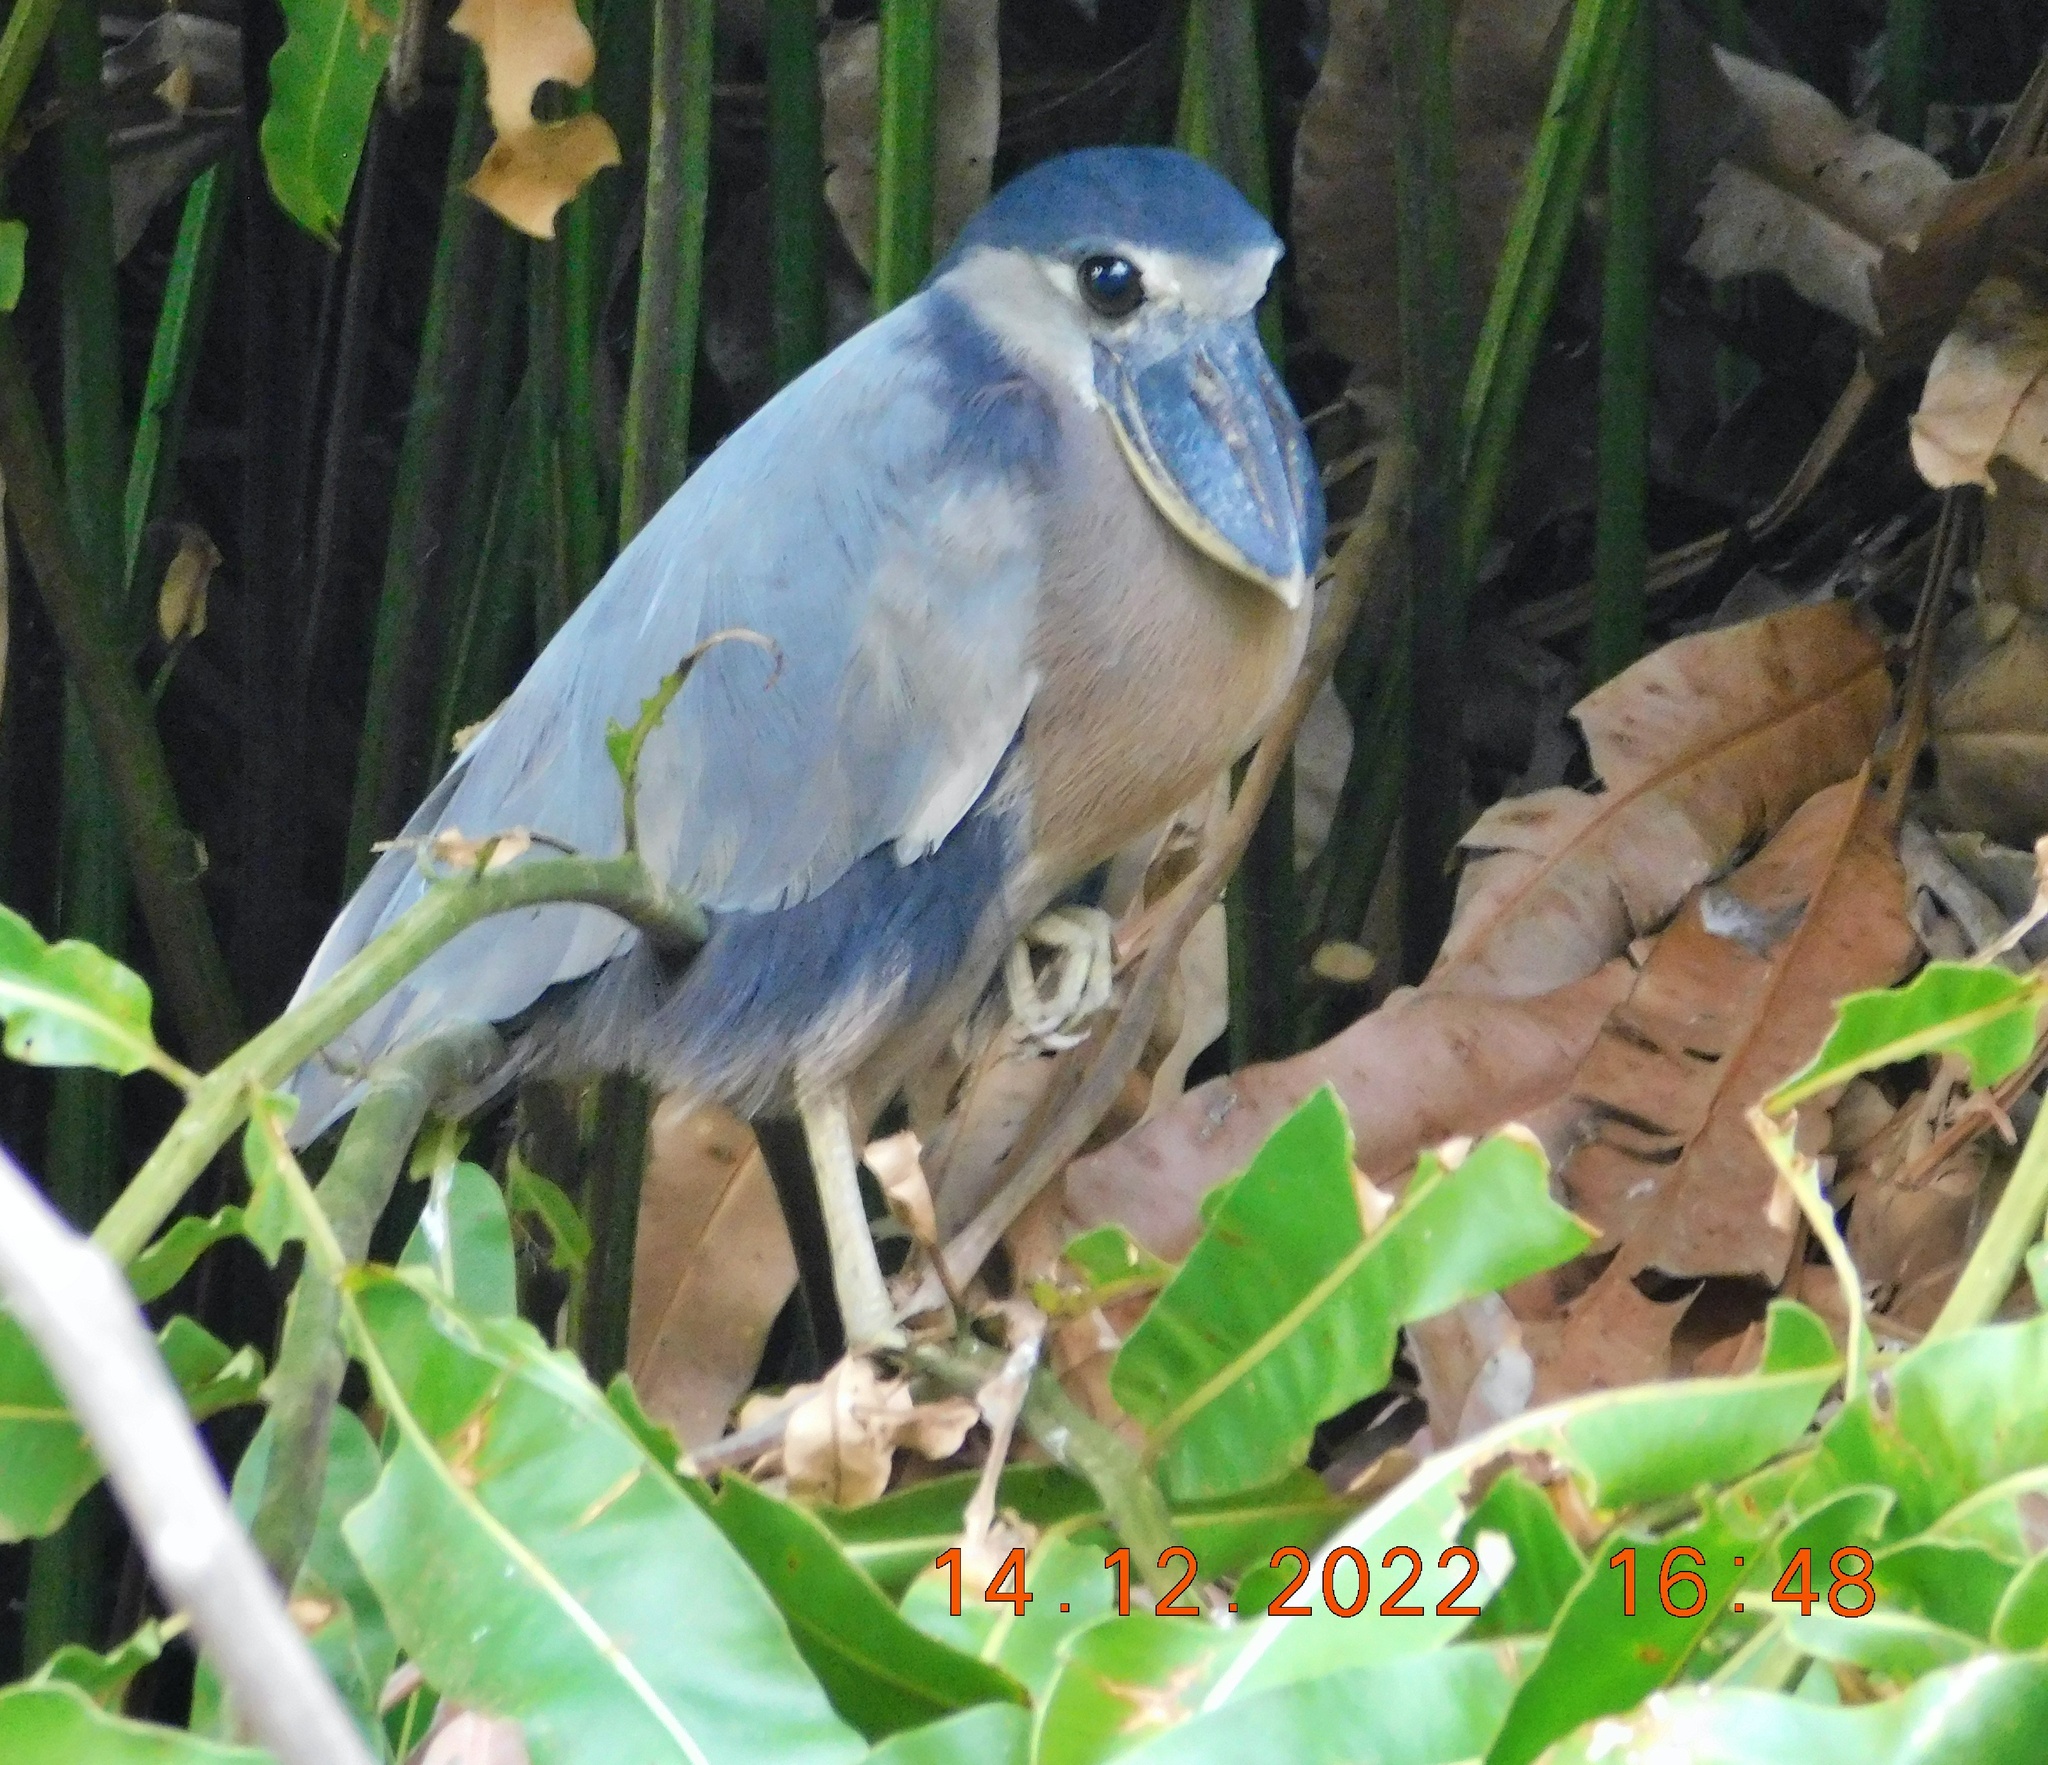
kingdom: Animalia
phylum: Chordata
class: Aves
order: Pelecaniformes
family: Ardeidae
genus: Cochlearius
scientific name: Cochlearius cochlearius
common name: Boat-billed heron
